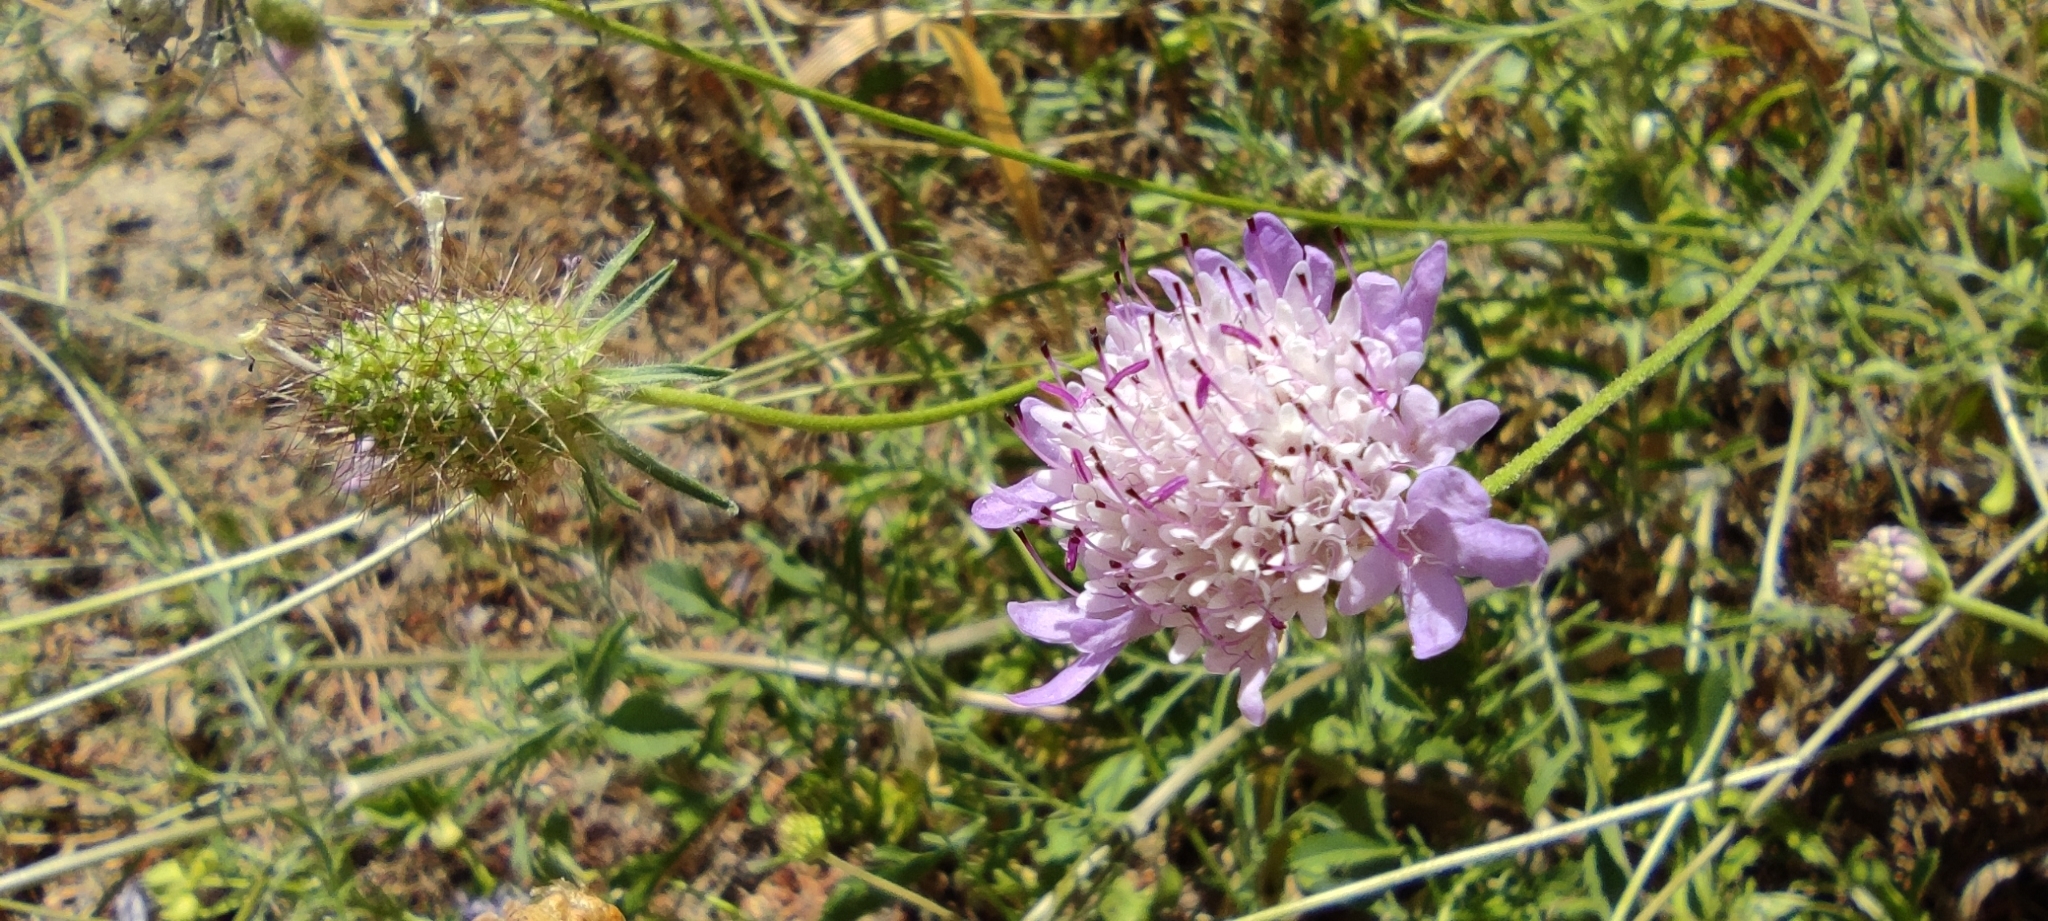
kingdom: Plantae
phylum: Tracheophyta
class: Magnoliopsida
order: Dipsacales
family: Caprifoliaceae
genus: Sixalix
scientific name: Sixalix atropurpurea
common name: Sweet scabious
